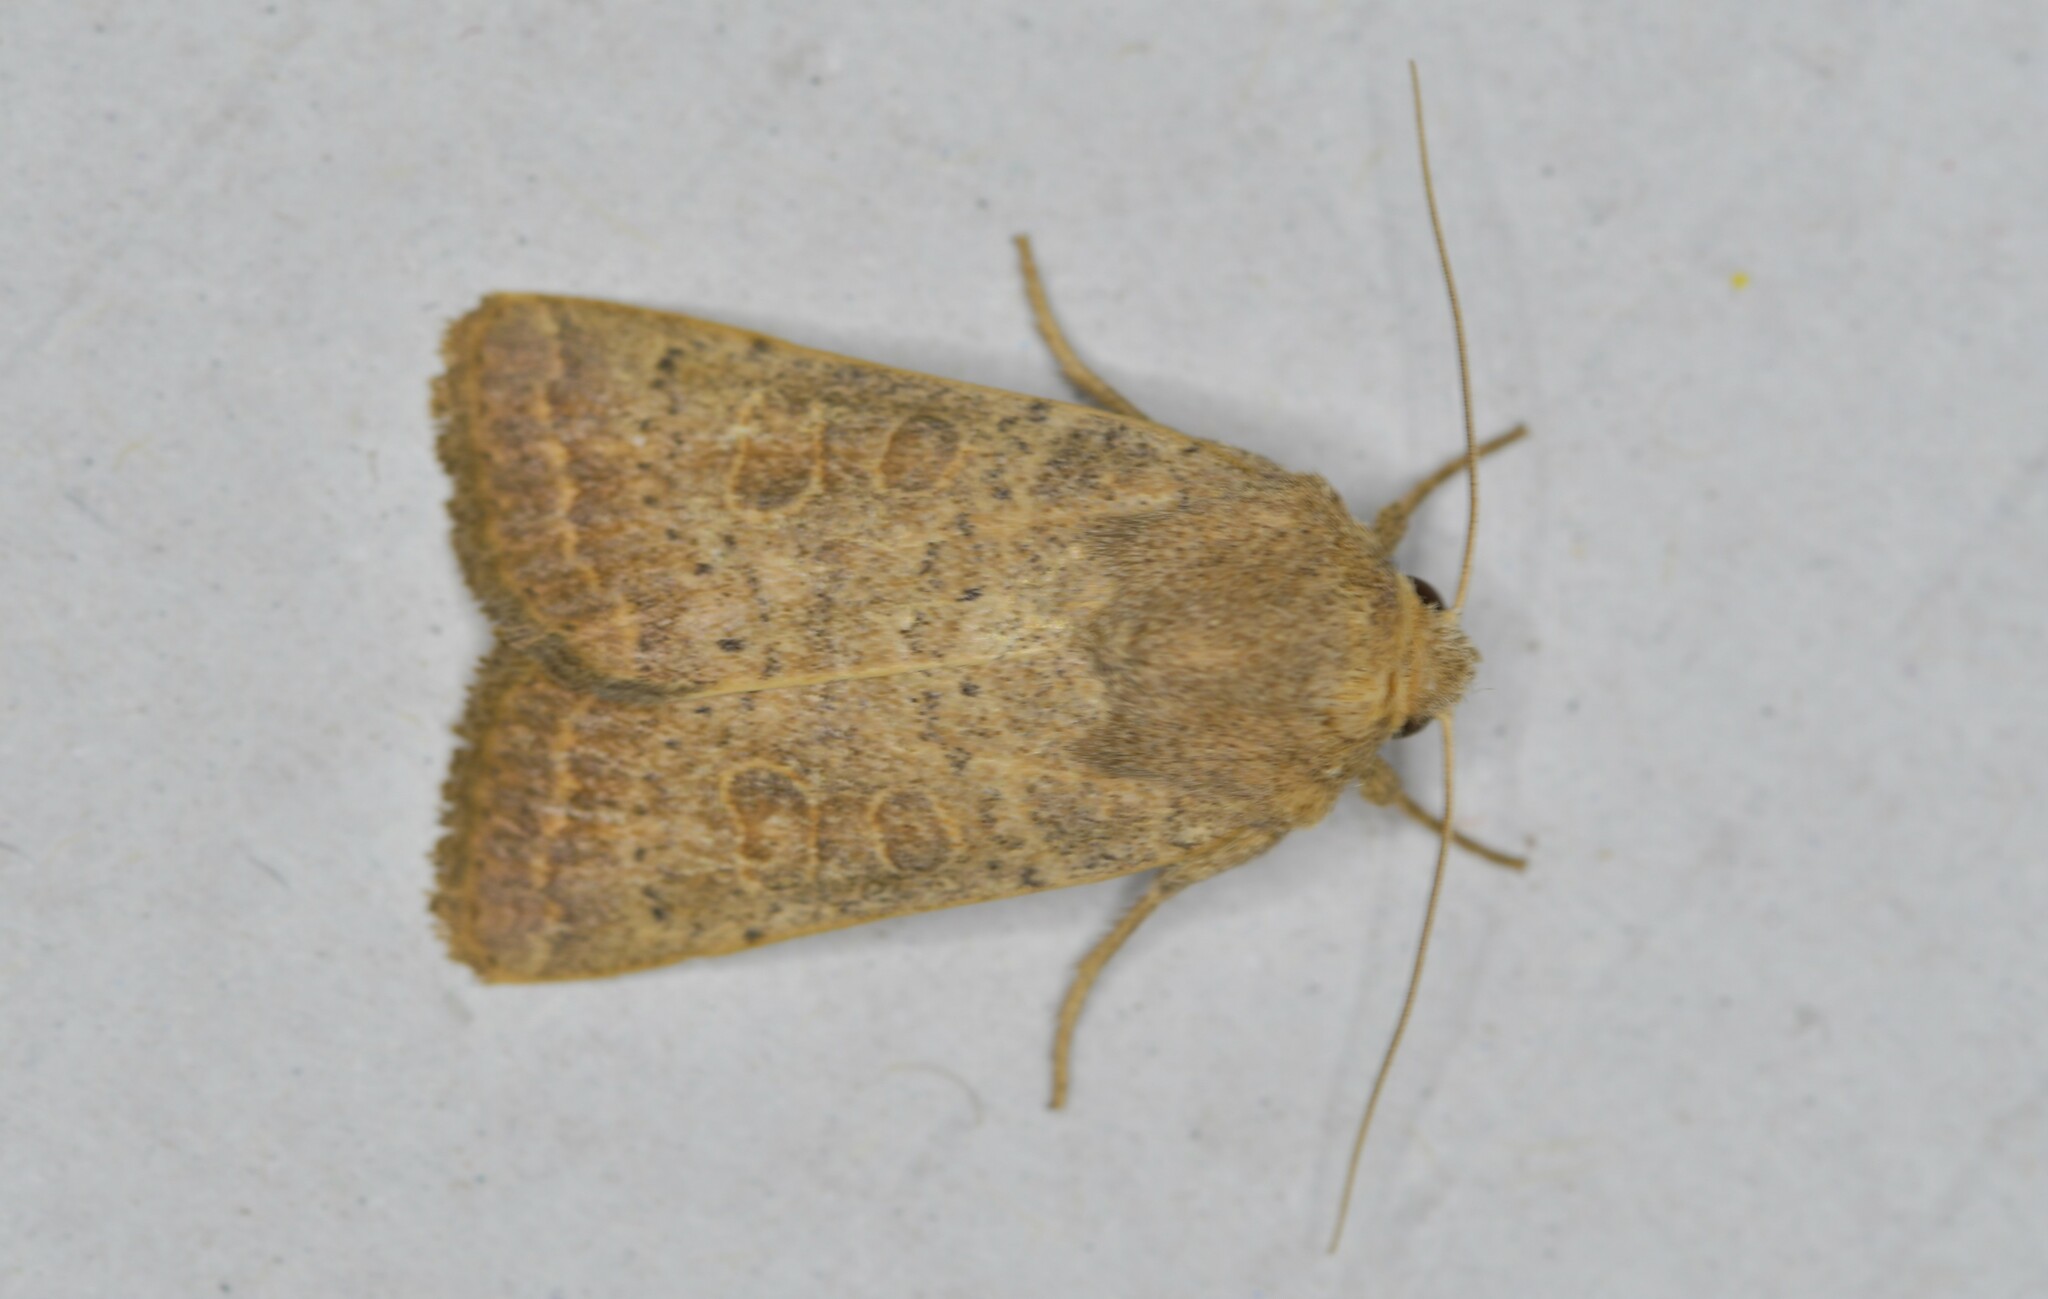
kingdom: Animalia
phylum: Arthropoda
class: Insecta
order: Lepidoptera
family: Noctuidae
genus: Hoplodrina
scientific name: Hoplodrina ambigua
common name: Vine's rustic
